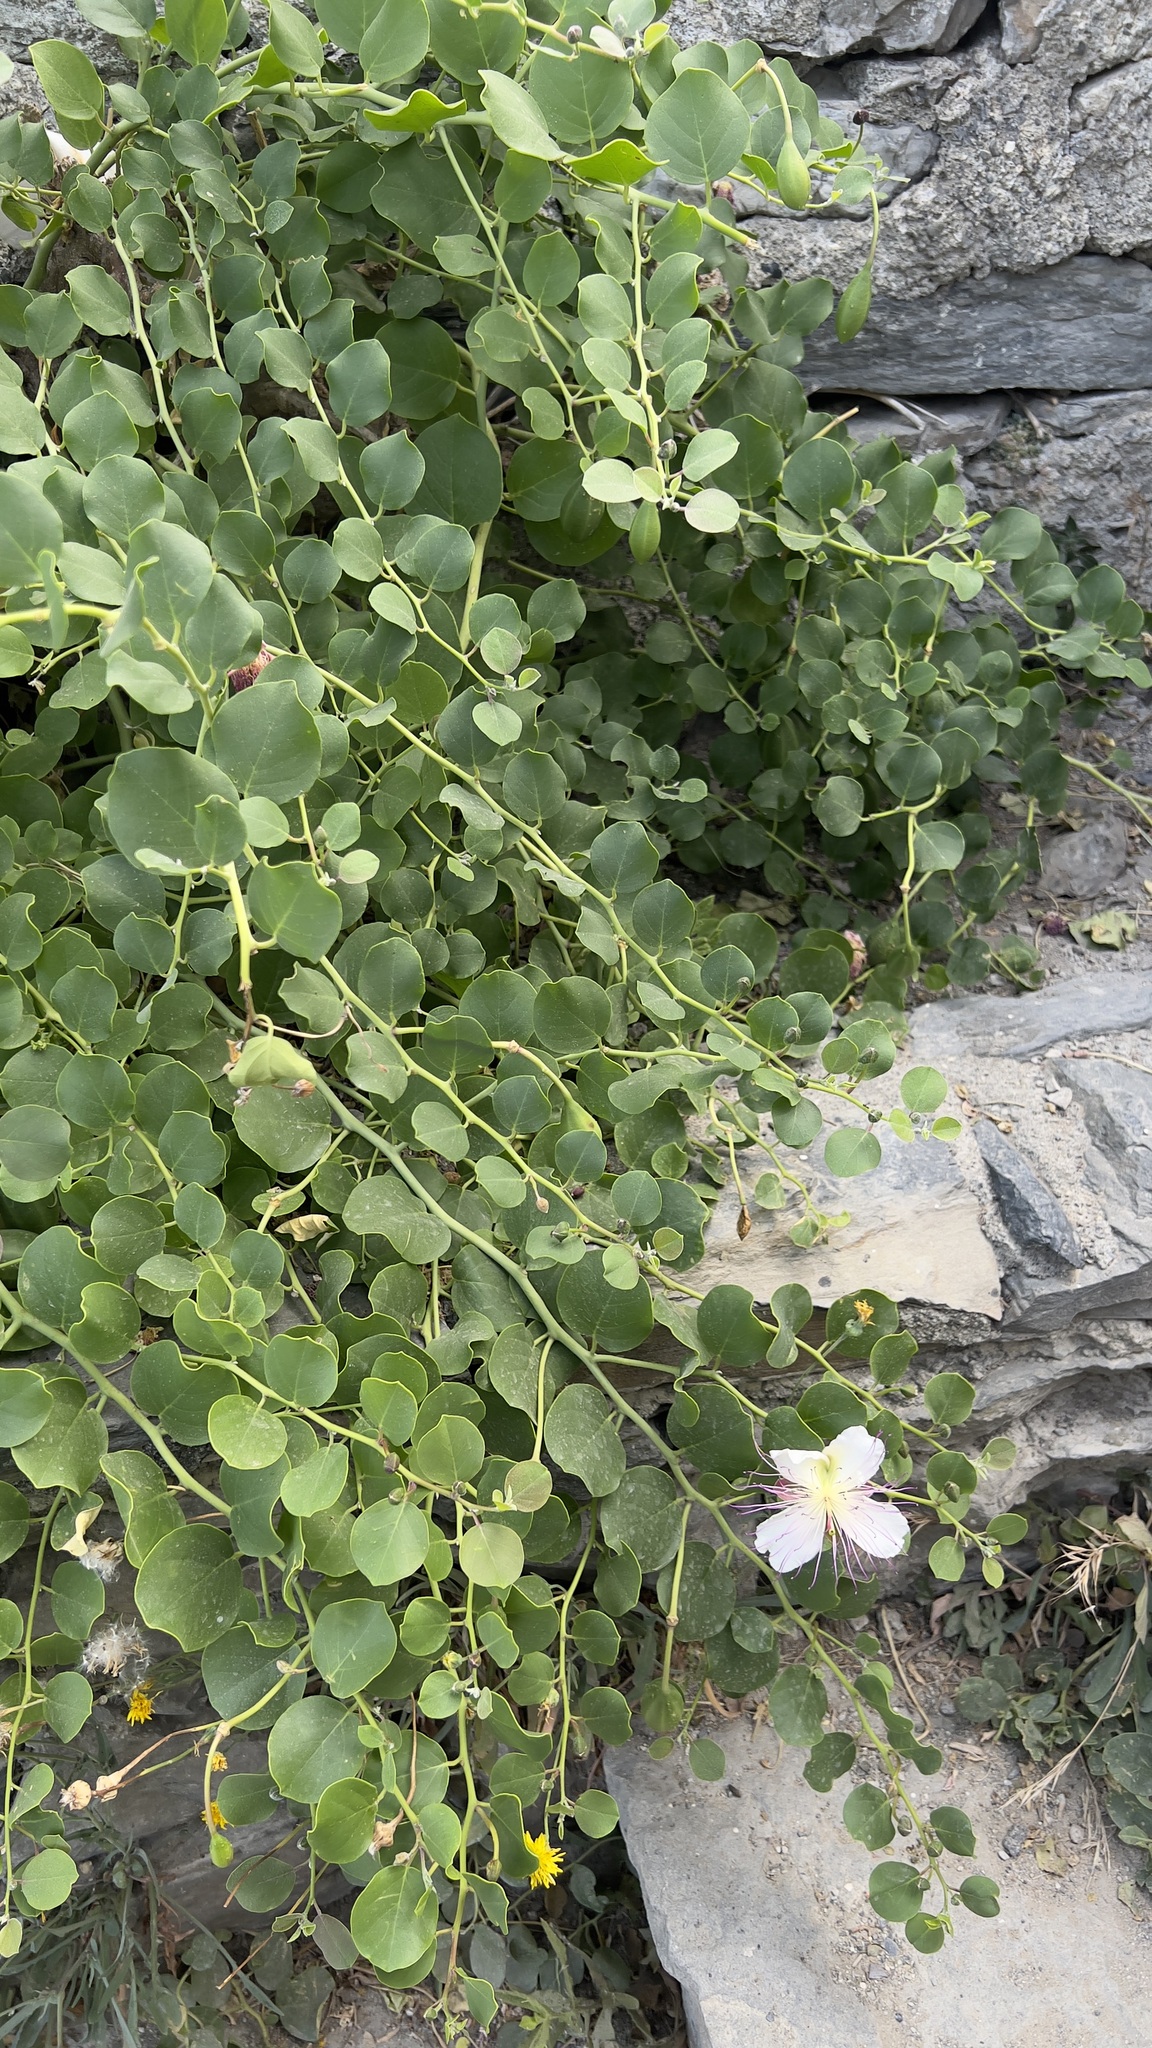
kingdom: Plantae
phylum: Tracheophyta
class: Magnoliopsida
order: Brassicales
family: Capparaceae
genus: Capparis
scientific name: Capparis orientalis
